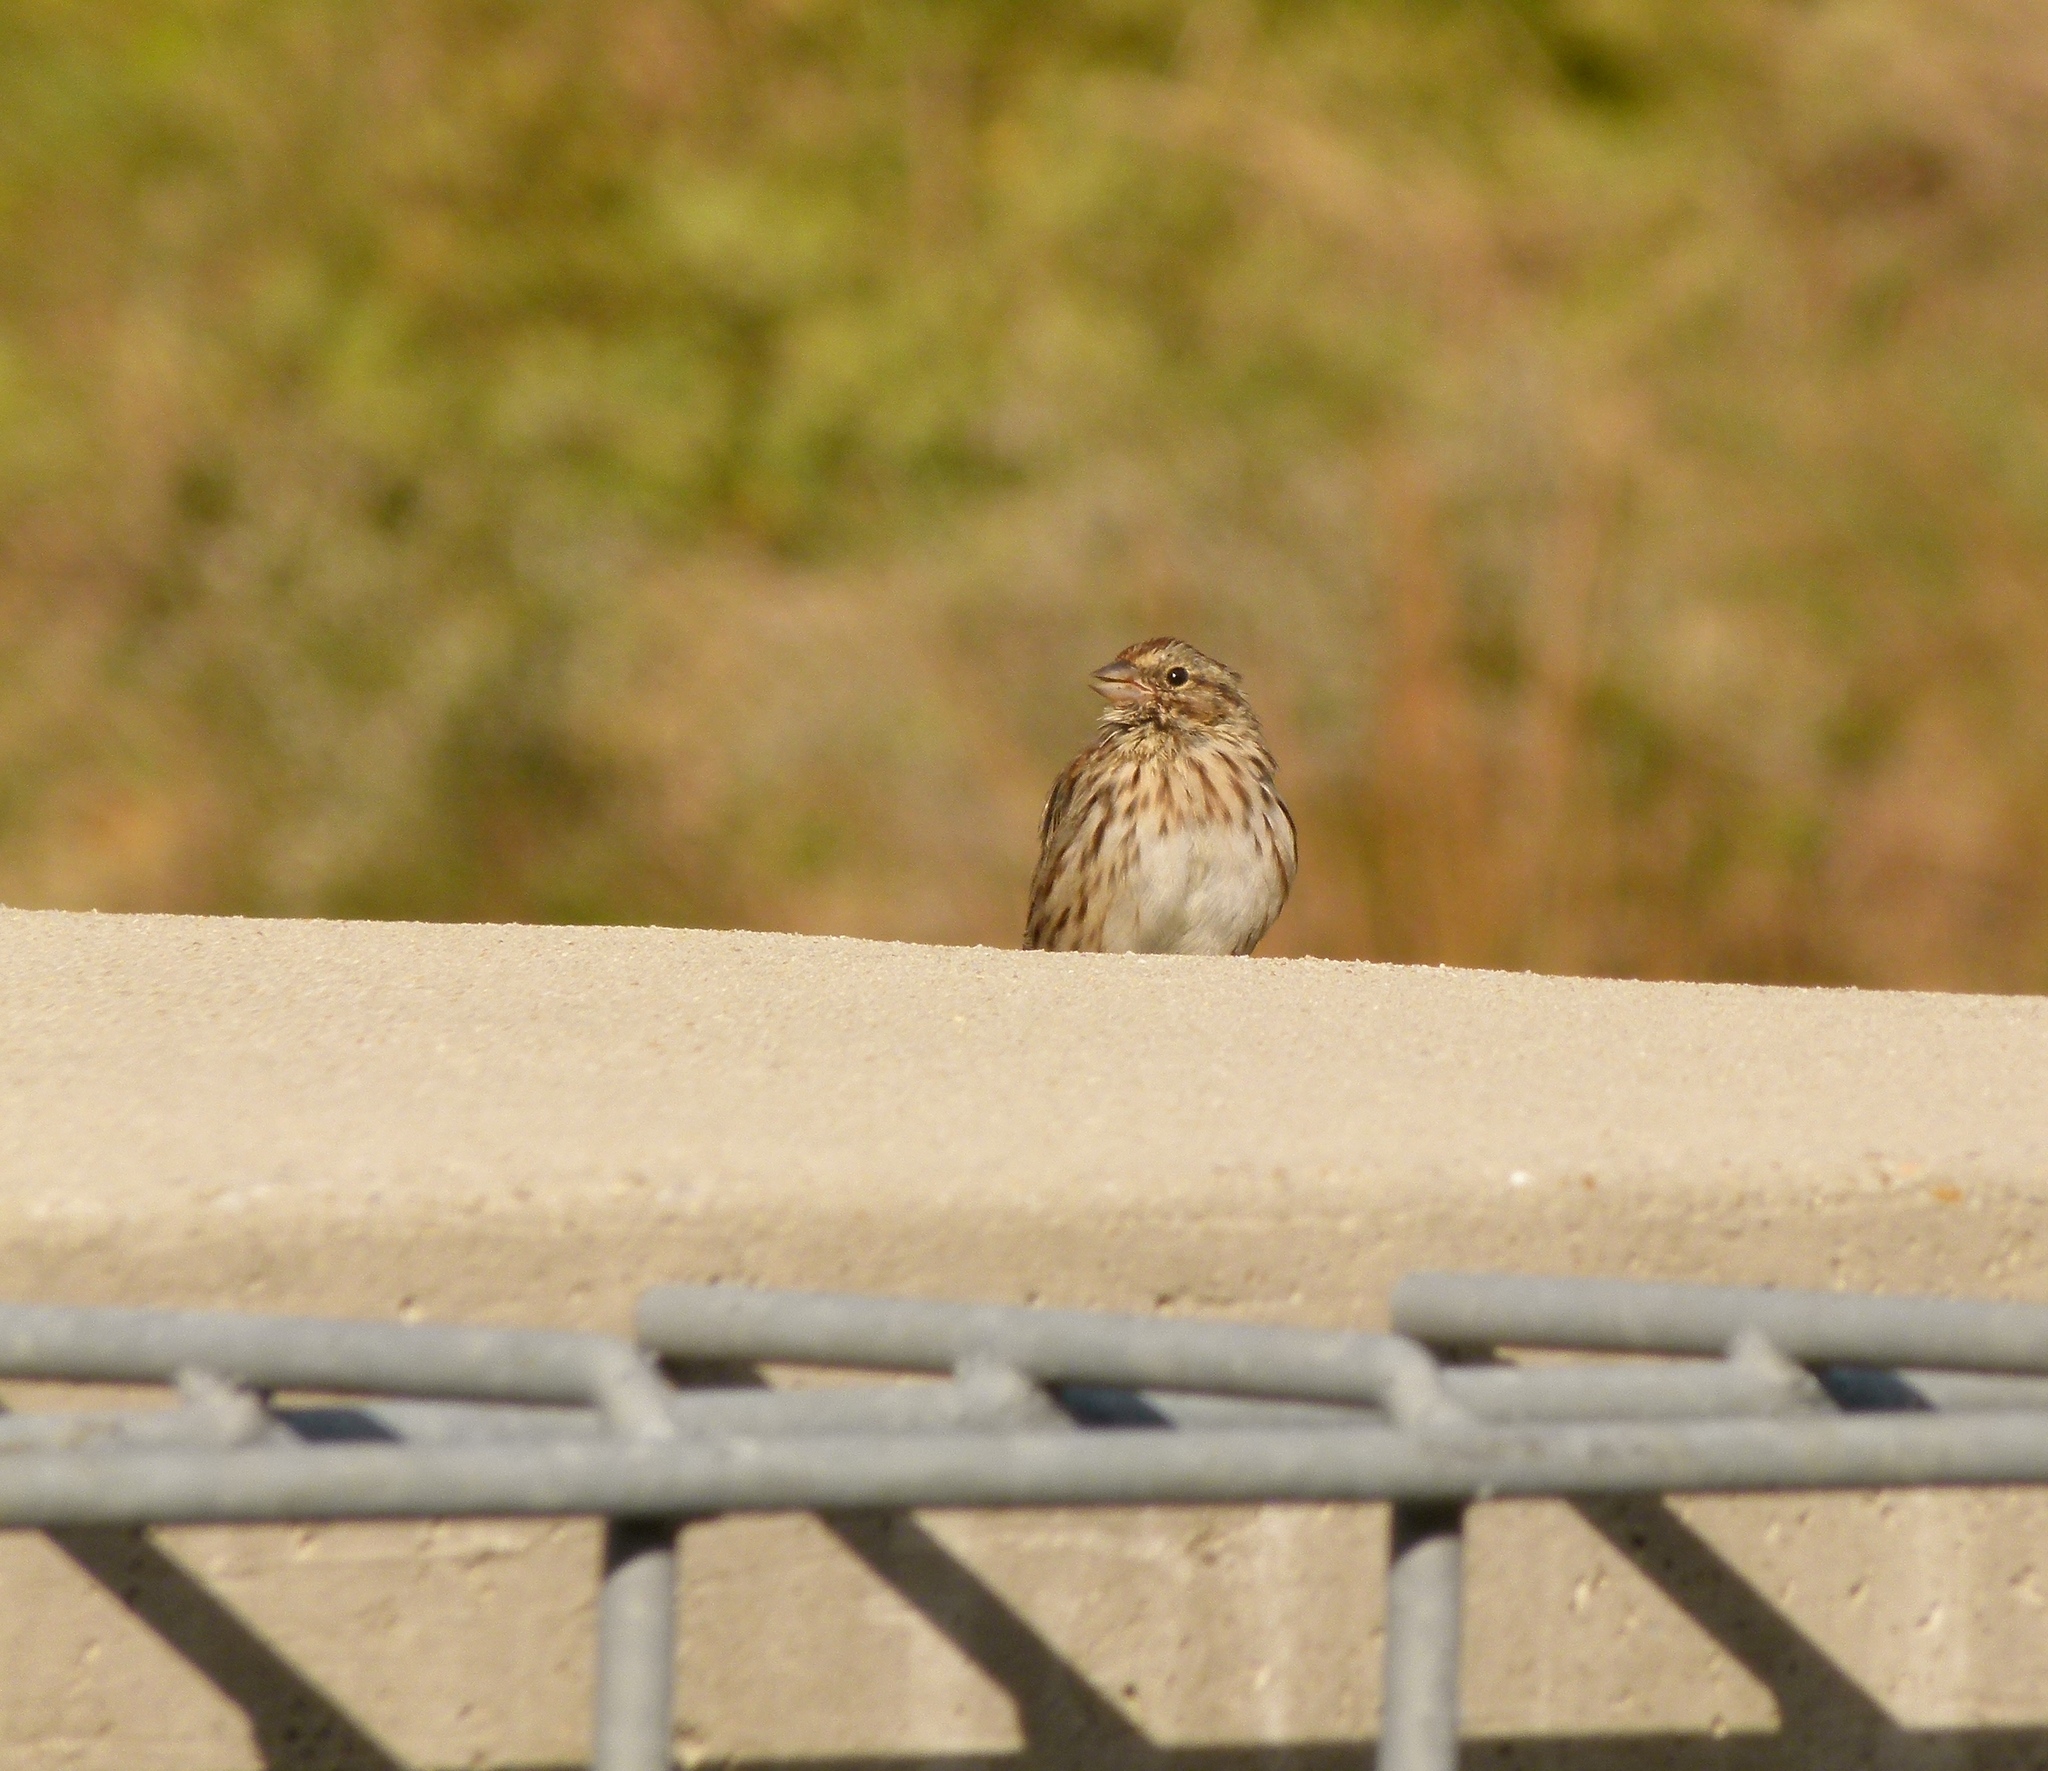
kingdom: Animalia
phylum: Chordata
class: Aves
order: Passeriformes
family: Passerellidae
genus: Melospiza
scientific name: Melospiza melodia
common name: Song sparrow
